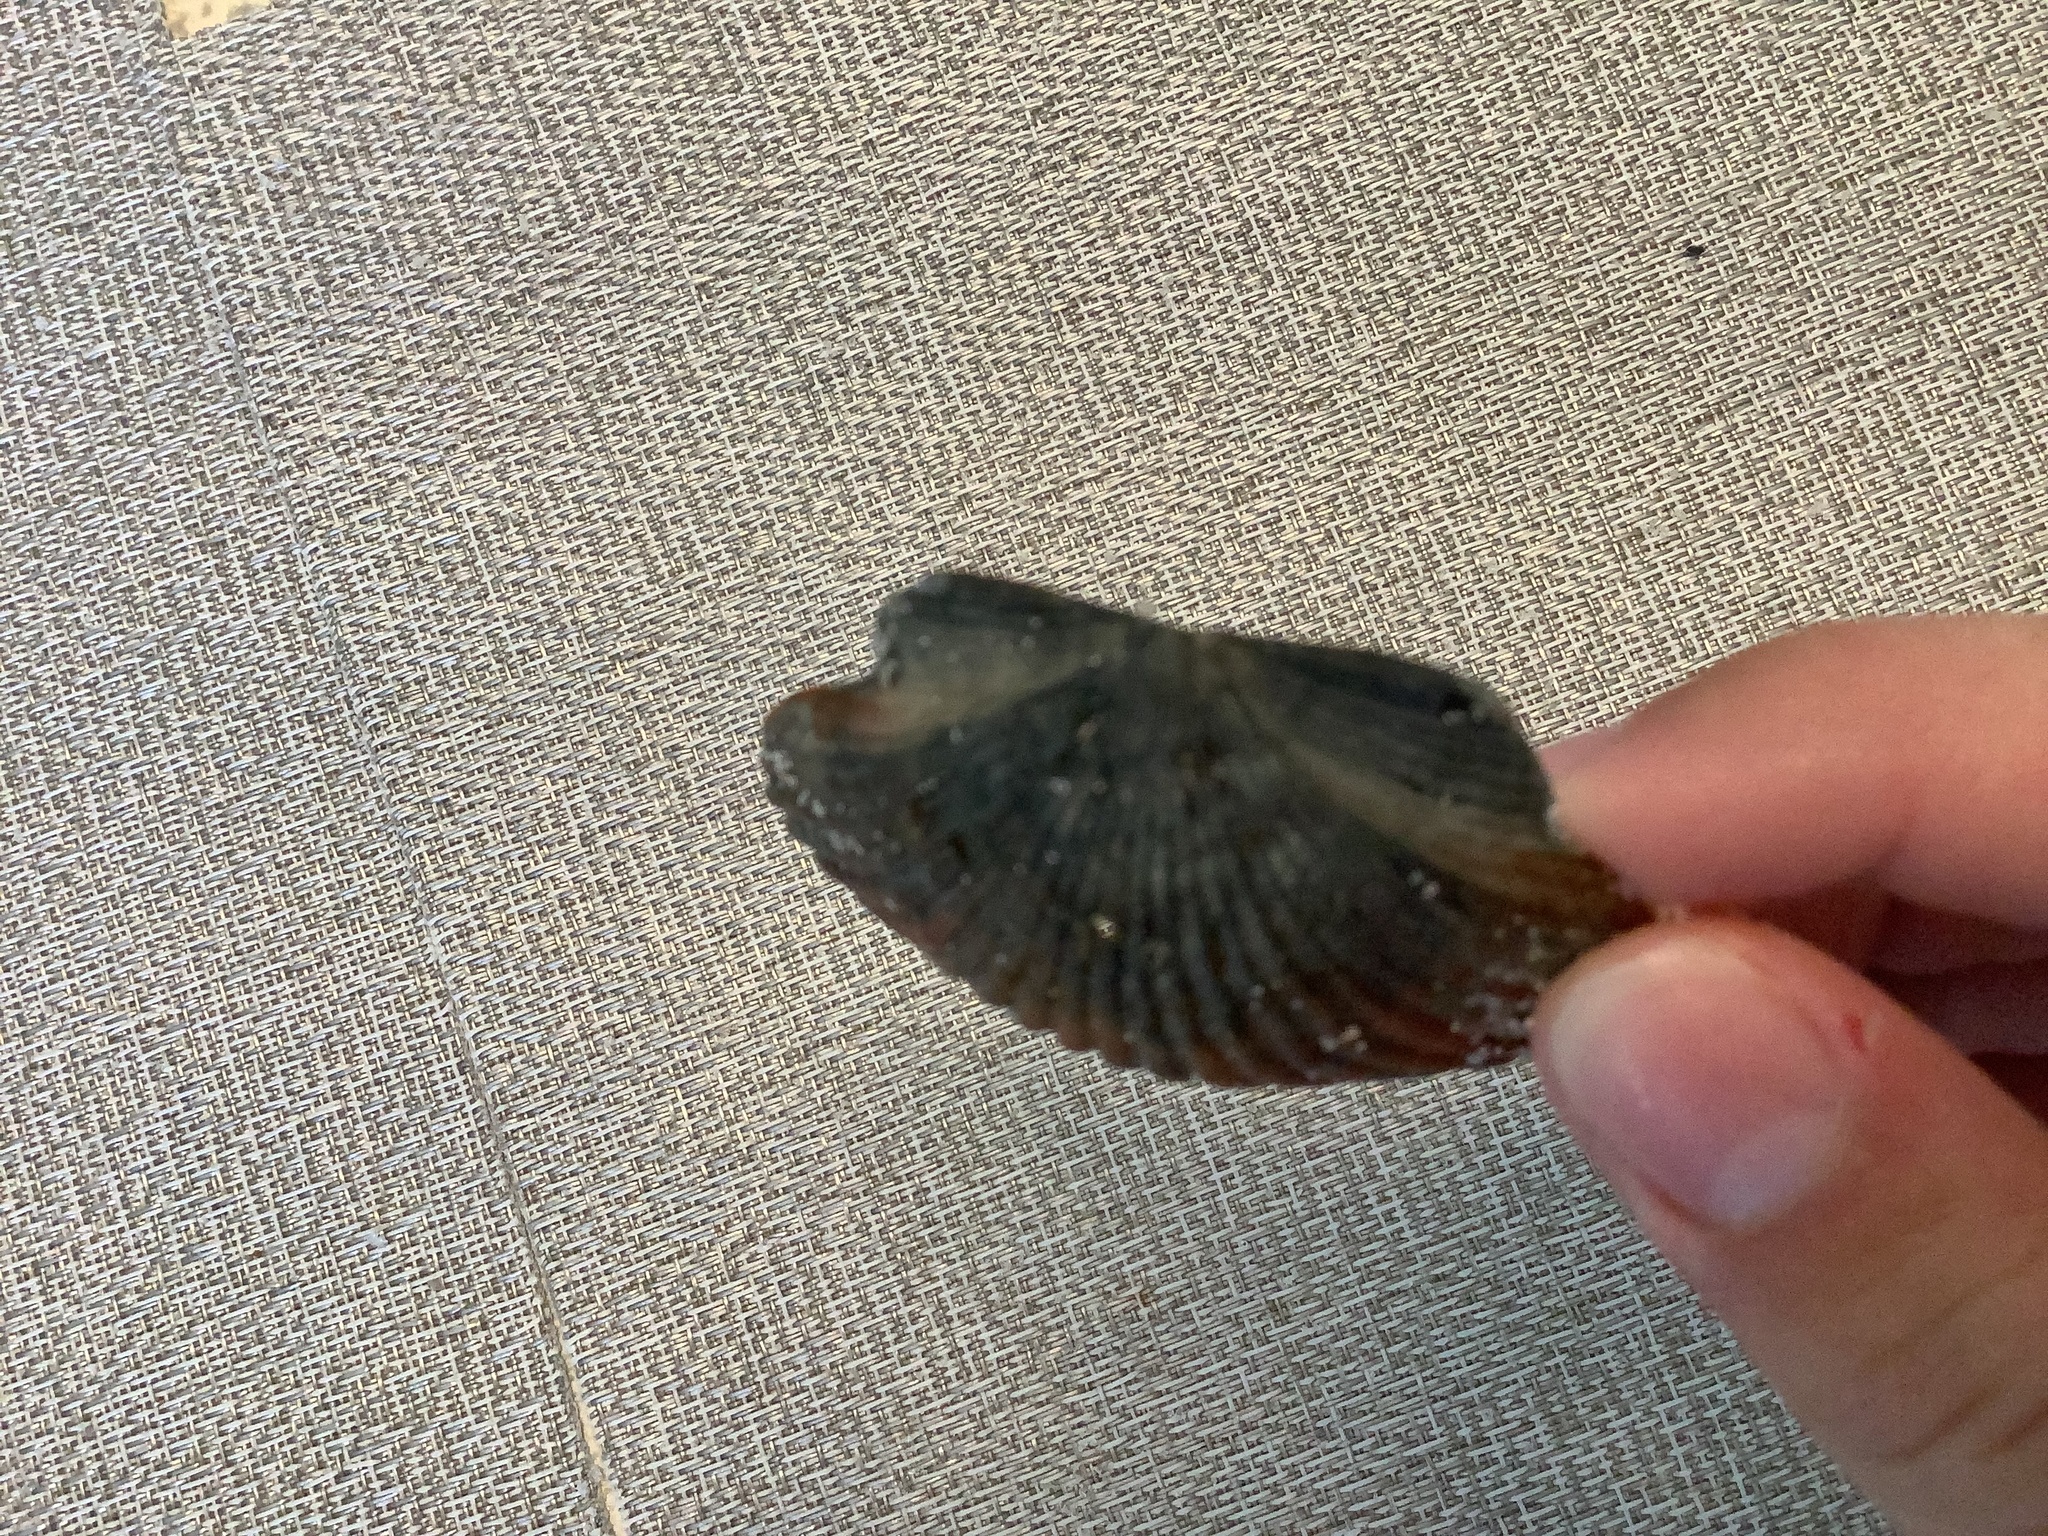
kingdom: Animalia
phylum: Mollusca
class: Bivalvia
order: Pectinida
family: Pectinidae
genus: Argopecten
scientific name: Argopecten irradians
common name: Atlantic bay scallop
